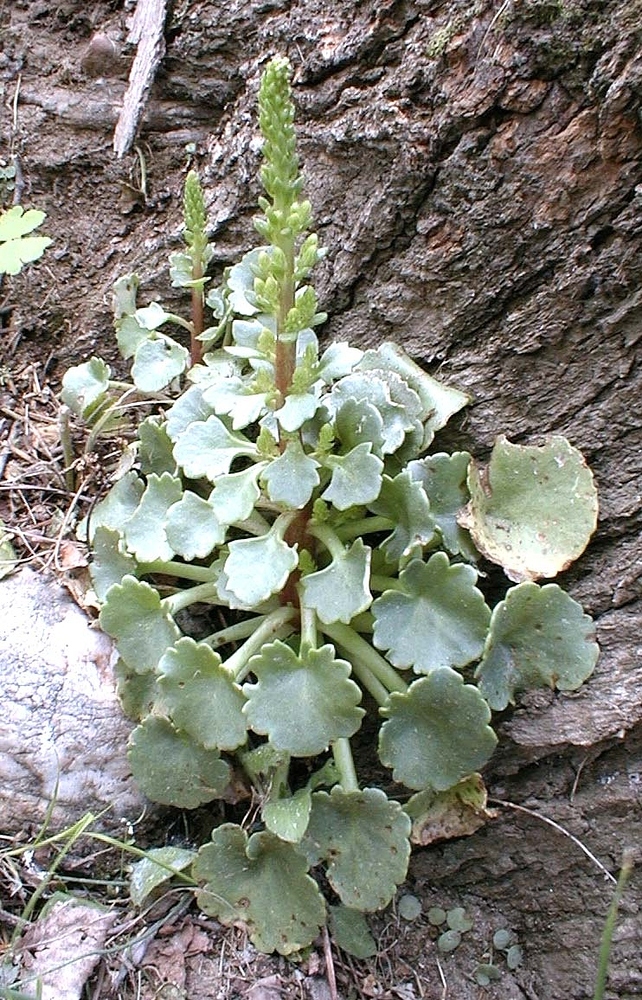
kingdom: Plantae
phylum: Tracheophyta
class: Magnoliopsida
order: Saxifragales
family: Crassulaceae
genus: Umbilicus
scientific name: Umbilicus rupestris
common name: Navelwort
